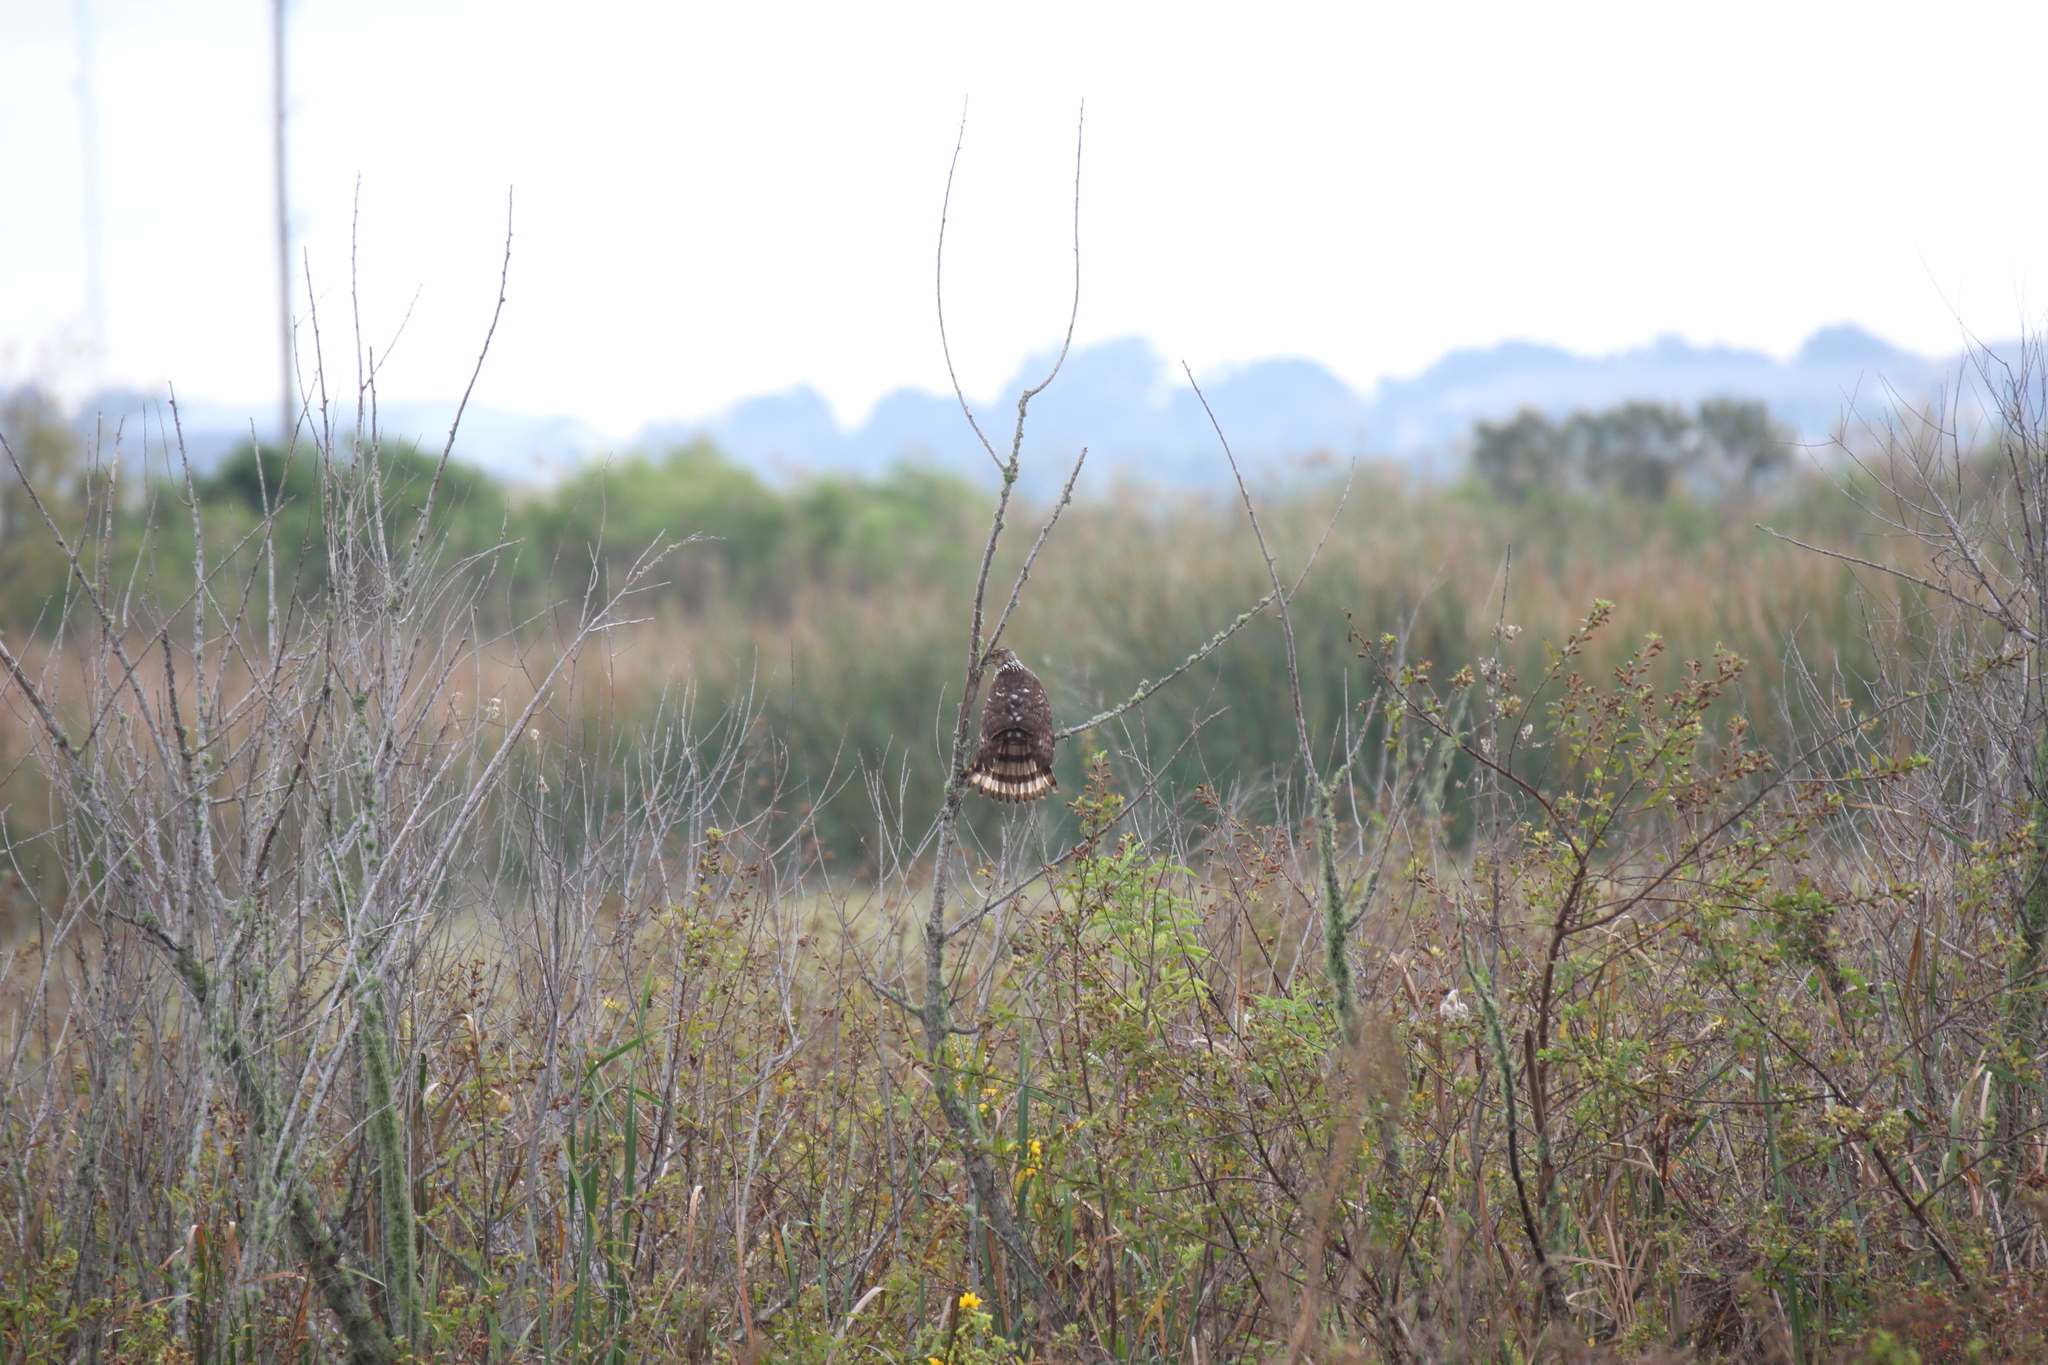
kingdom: Animalia
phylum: Chordata
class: Aves
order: Accipitriformes
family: Accipitridae
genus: Accipiter
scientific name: Accipiter cooperii
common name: Cooper's hawk
